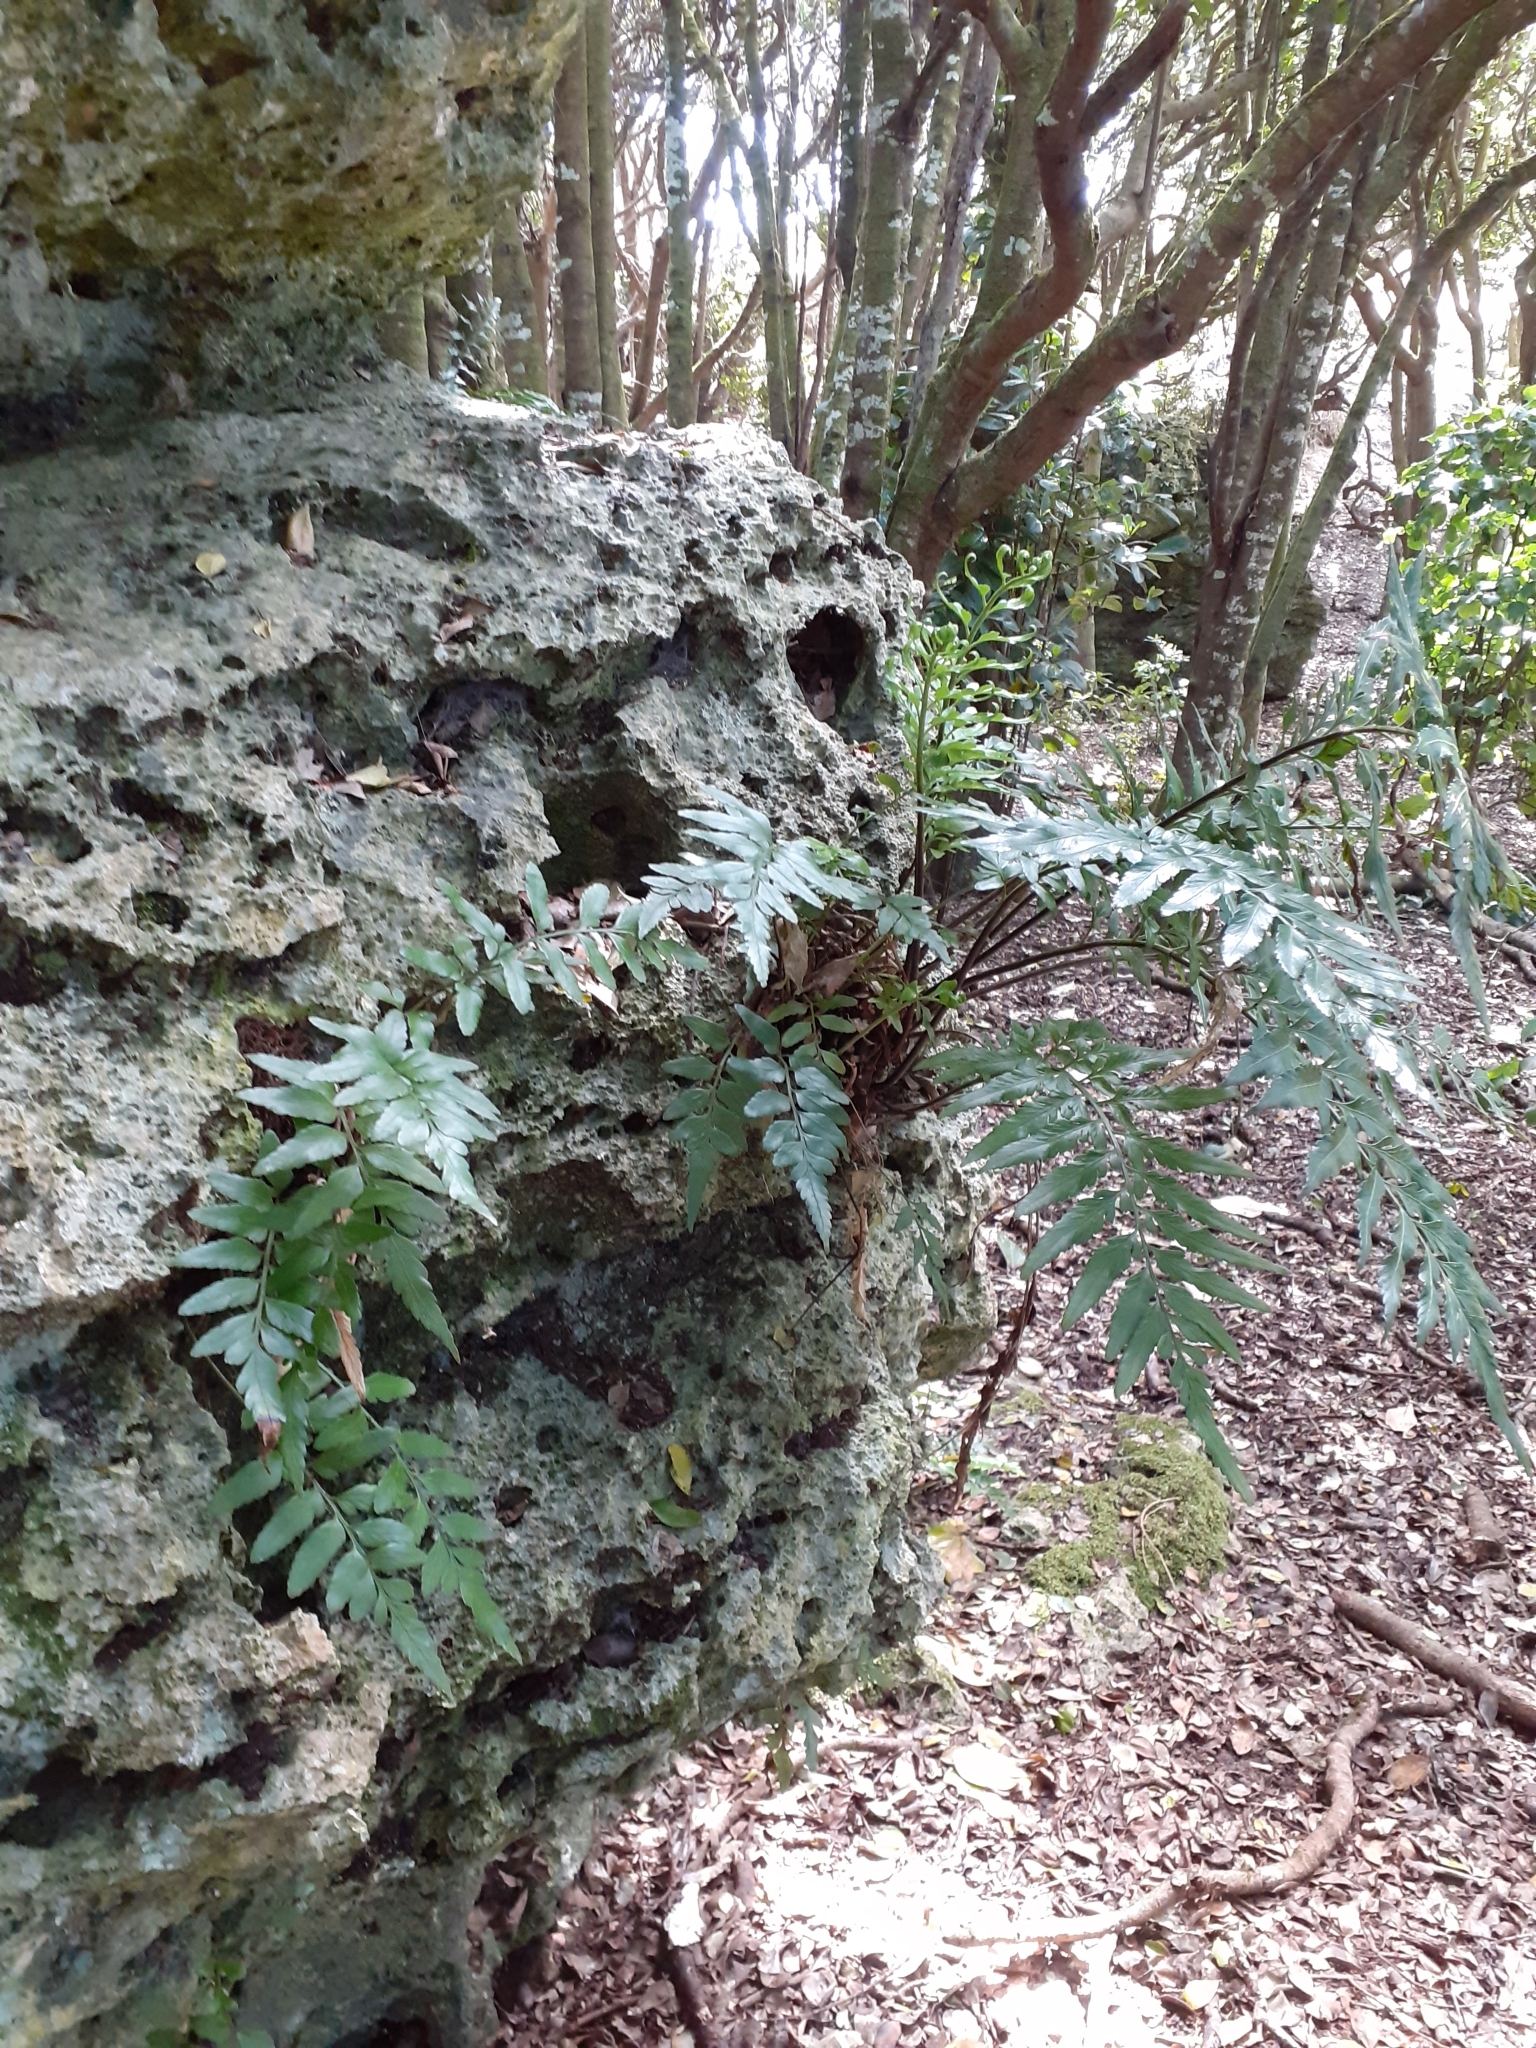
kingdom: Plantae
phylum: Tracheophyta
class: Polypodiopsida
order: Polypodiales
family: Aspleniaceae
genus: Asplenium
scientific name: Asplenium lyallii
